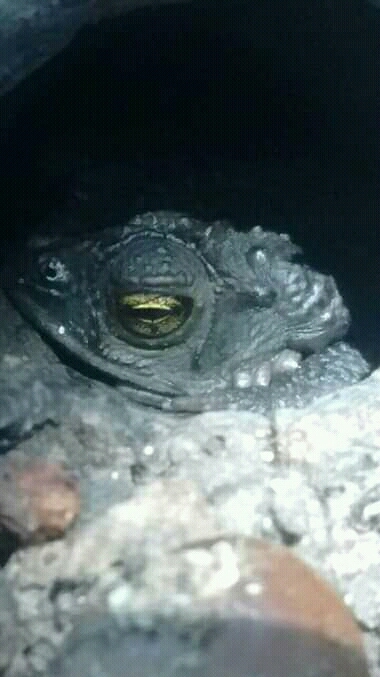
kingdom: Animalia
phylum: Chordata
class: Amphibia
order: Anura
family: Bufonidae
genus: Rhinella
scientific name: Rhinella dorbignyi
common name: D´orbigny’s toad
